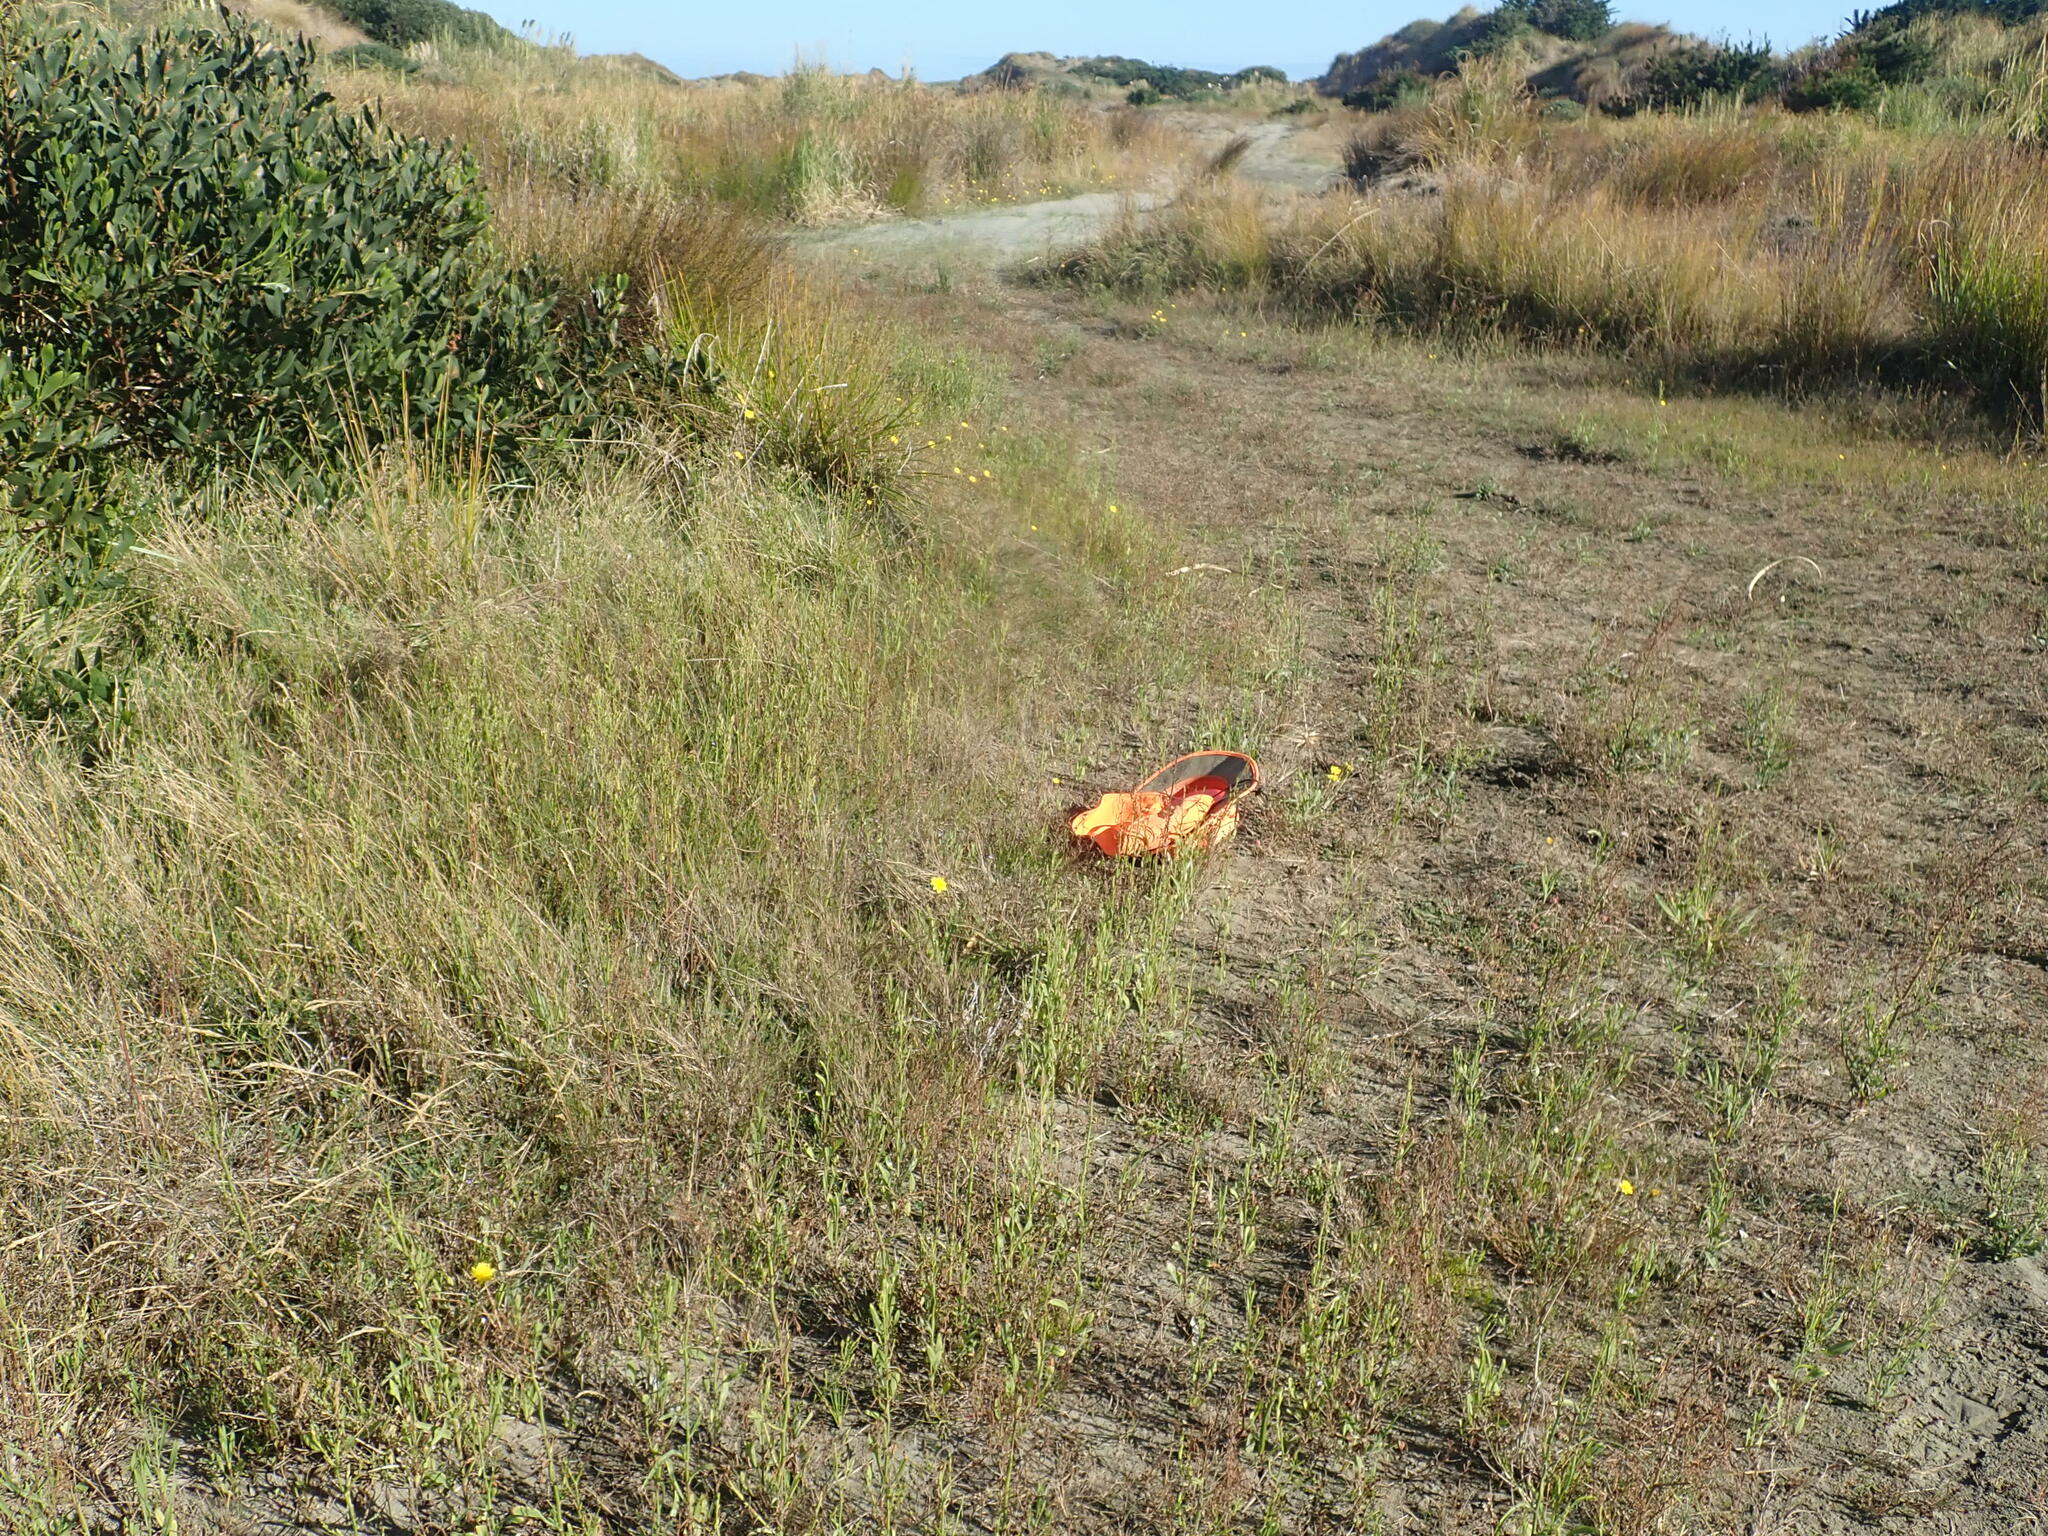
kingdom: Plantae
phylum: Tracheophyta
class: Liliopsida
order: Alismatales
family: Juncaginaceae
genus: Triglochin
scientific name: Triglochin striata
